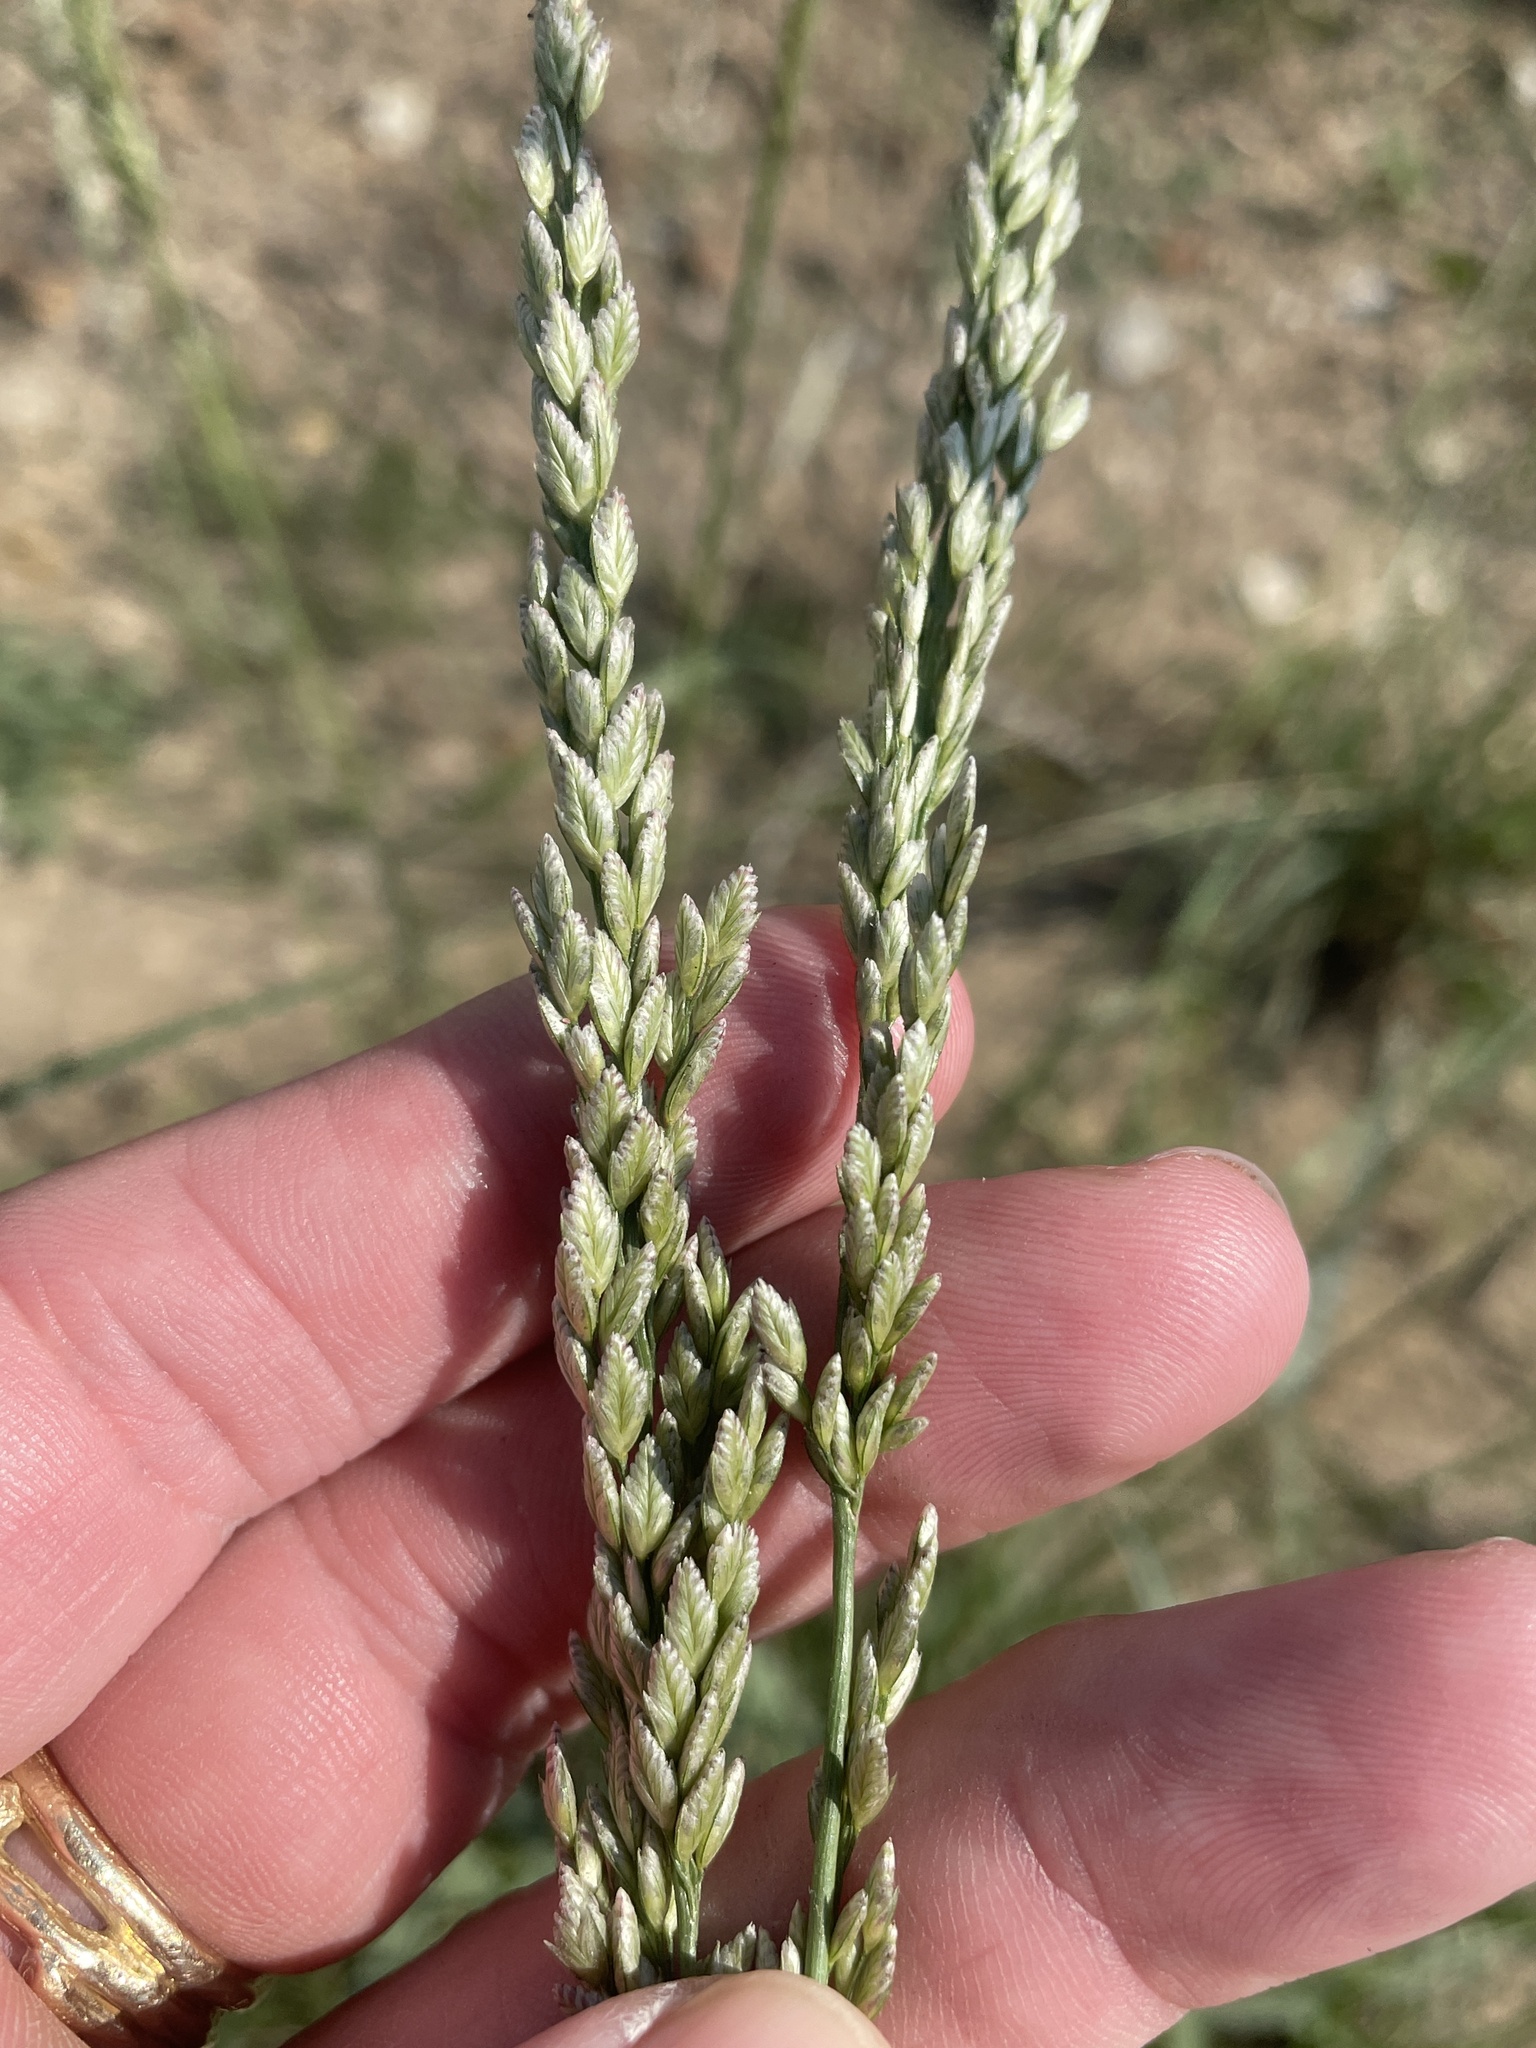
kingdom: Plantae
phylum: Tracheophyta
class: Liliopsida
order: Poales
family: Poaceae
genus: Tridens
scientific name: Tridens albescens
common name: White tridens
